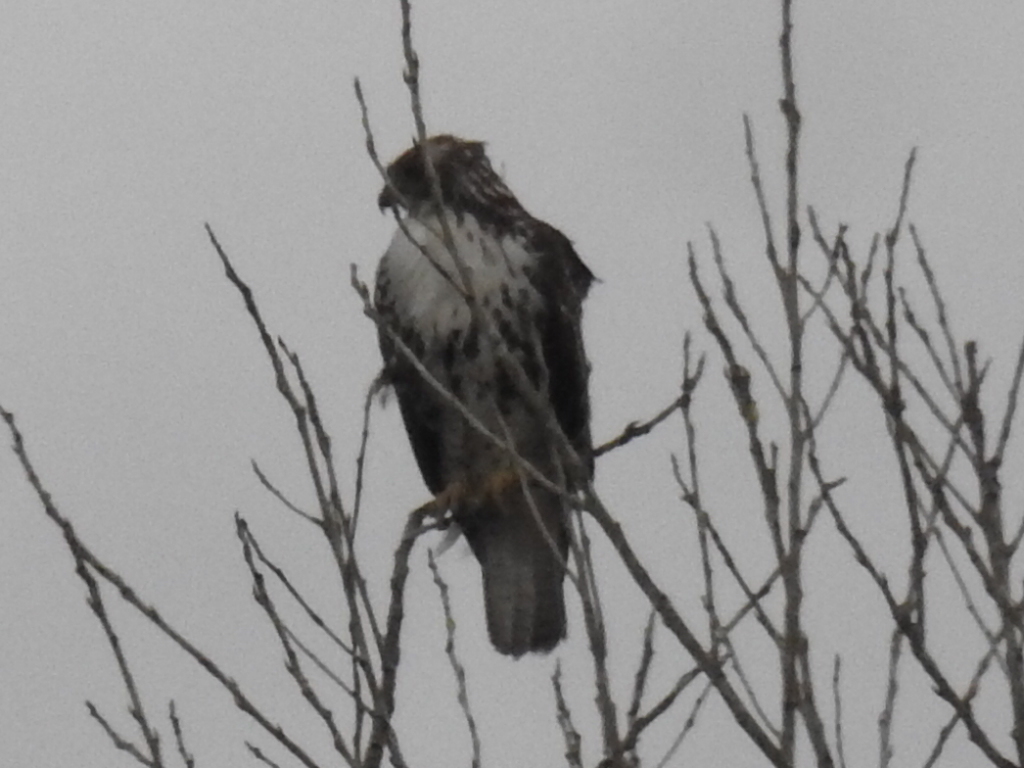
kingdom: Animalia
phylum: Chordata
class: Aves
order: Accipitriformes
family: Accipitridae
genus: Buteo
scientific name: Buteo jamaicensis
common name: Red-tailed hawk
